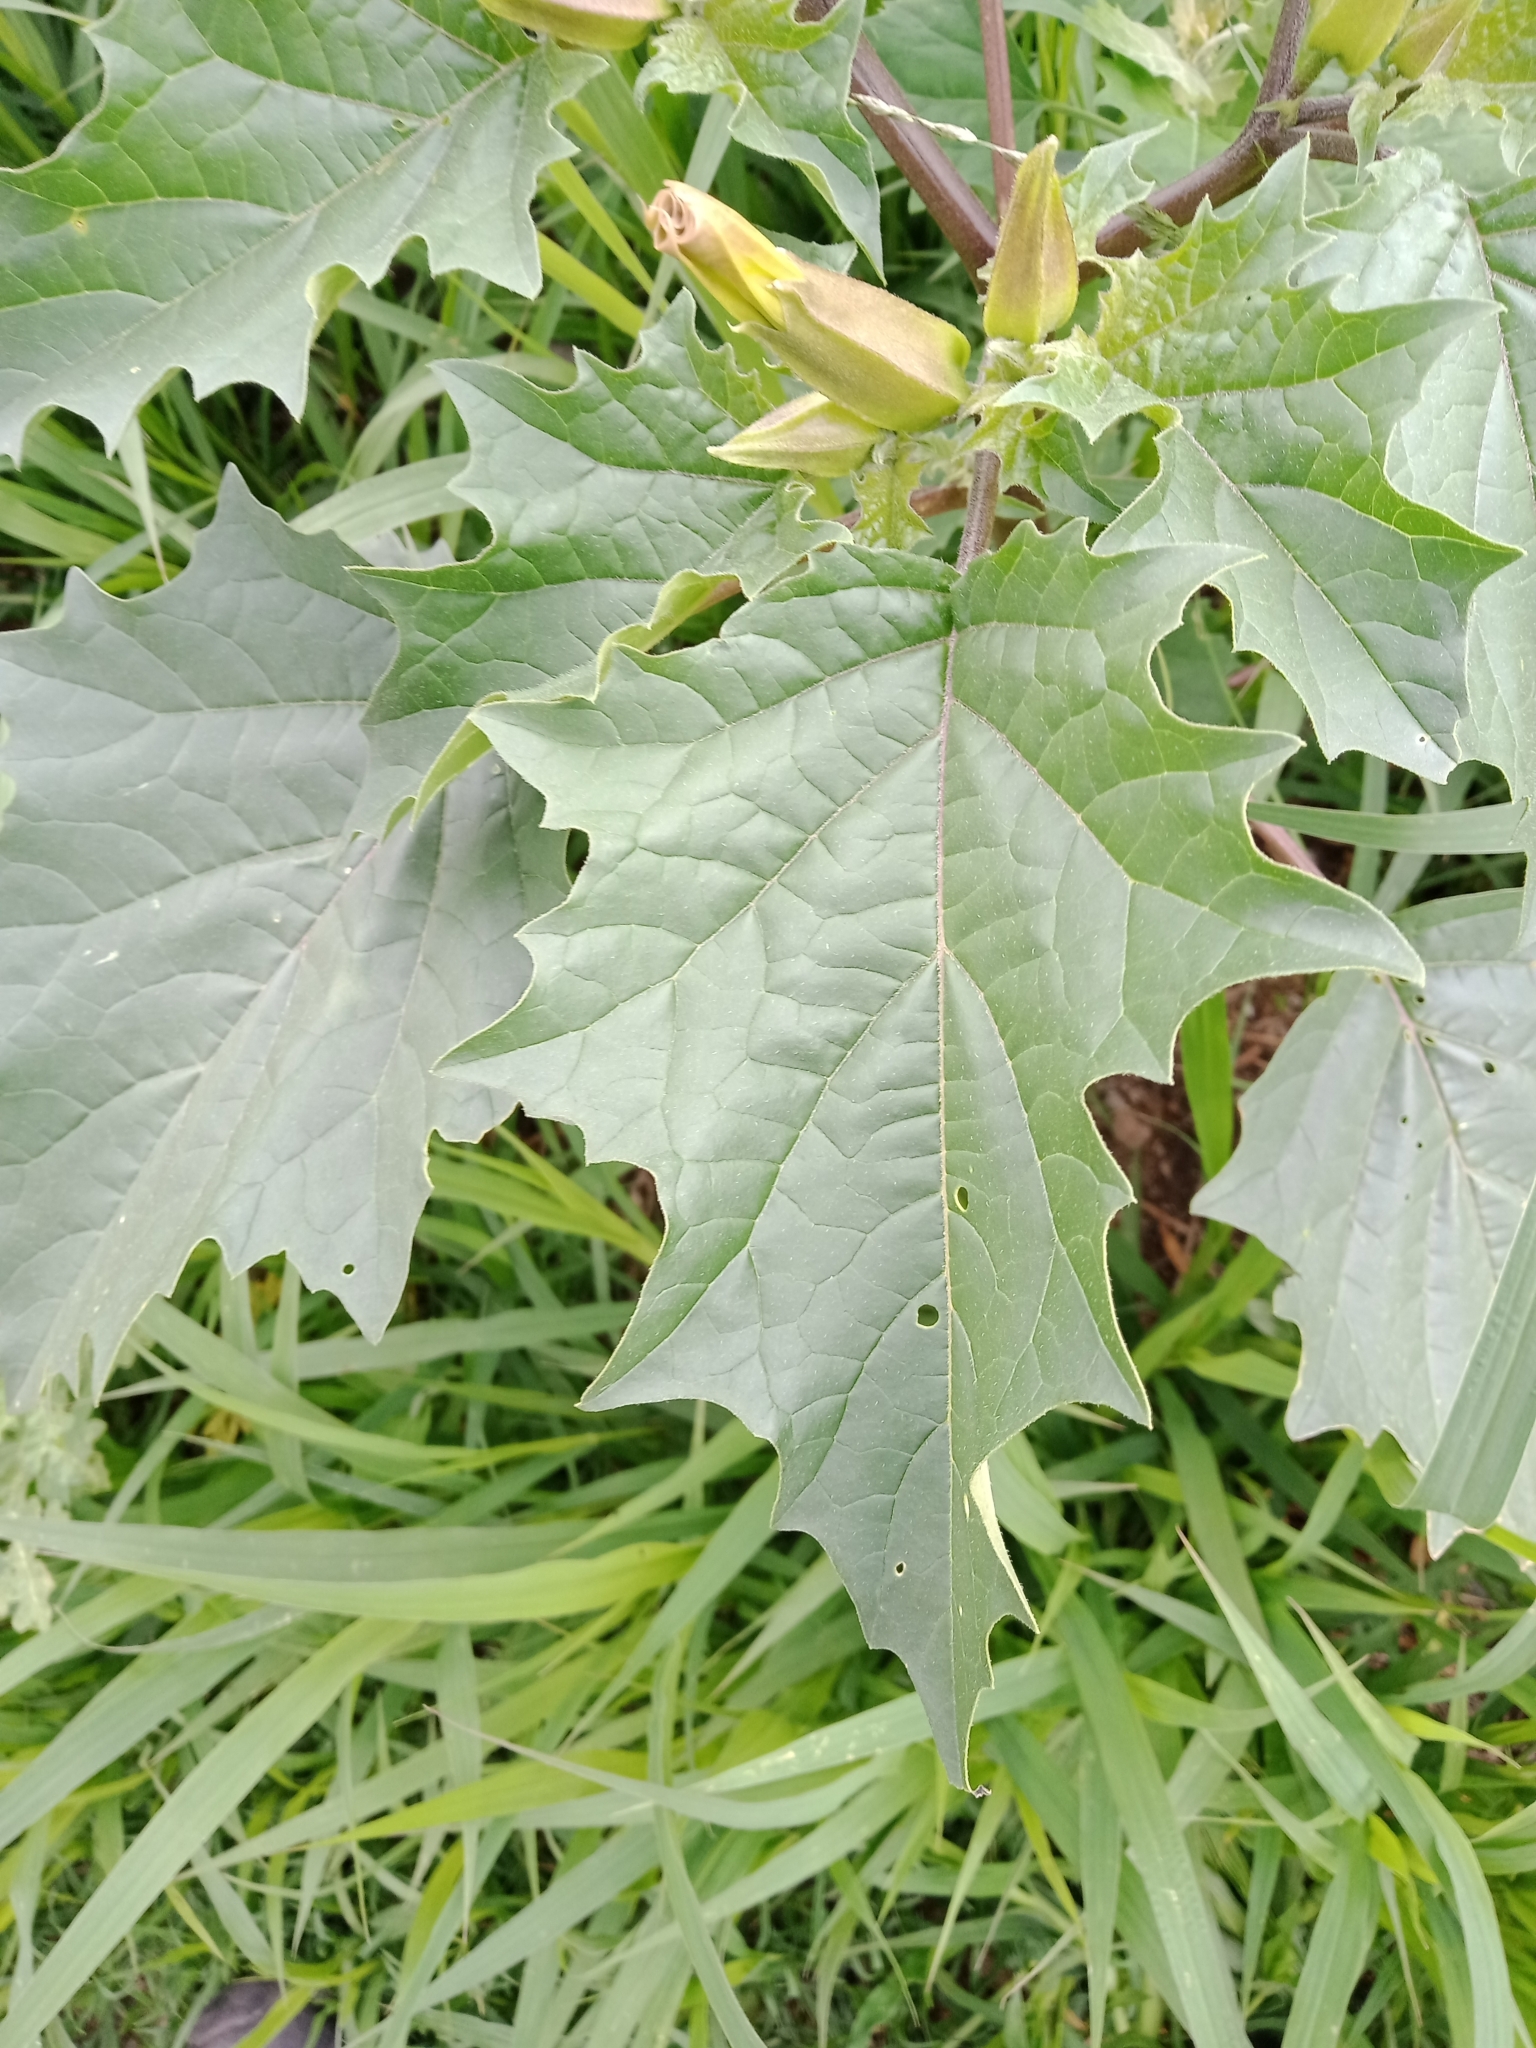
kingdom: Plantae
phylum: Tracheophyta
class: Magnoliopsida
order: Solanales
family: Solanaceae
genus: Datura
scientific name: Datura stramonium
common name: Thorn-apple
